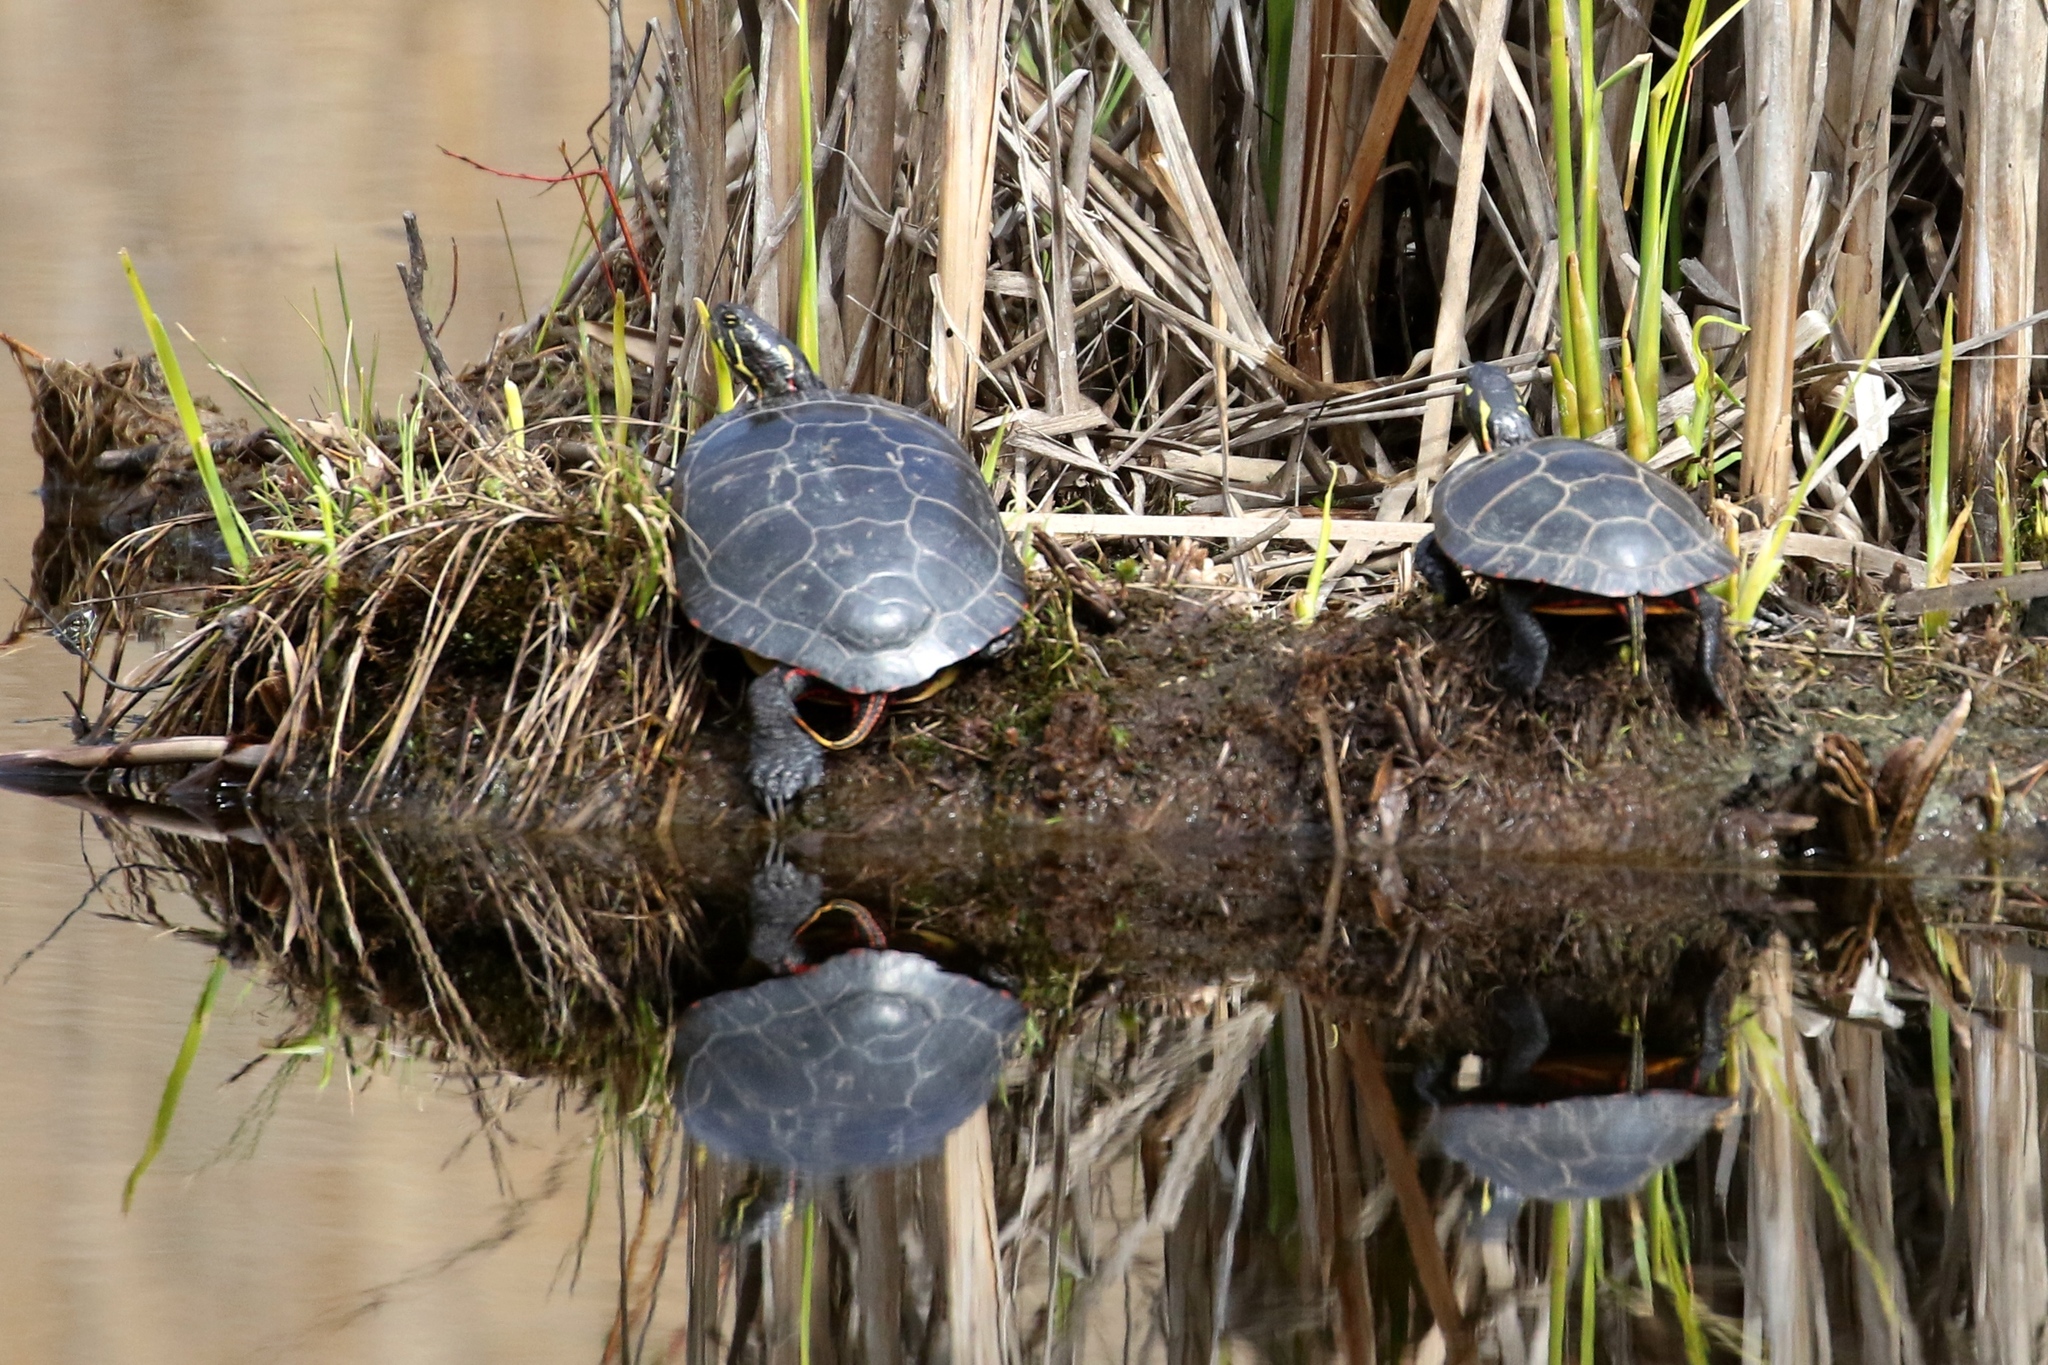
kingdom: Animalia
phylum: Chordata
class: Testudines
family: Emydidae
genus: Chrysemys
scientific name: Chrysemys picta
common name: Painted turtle
